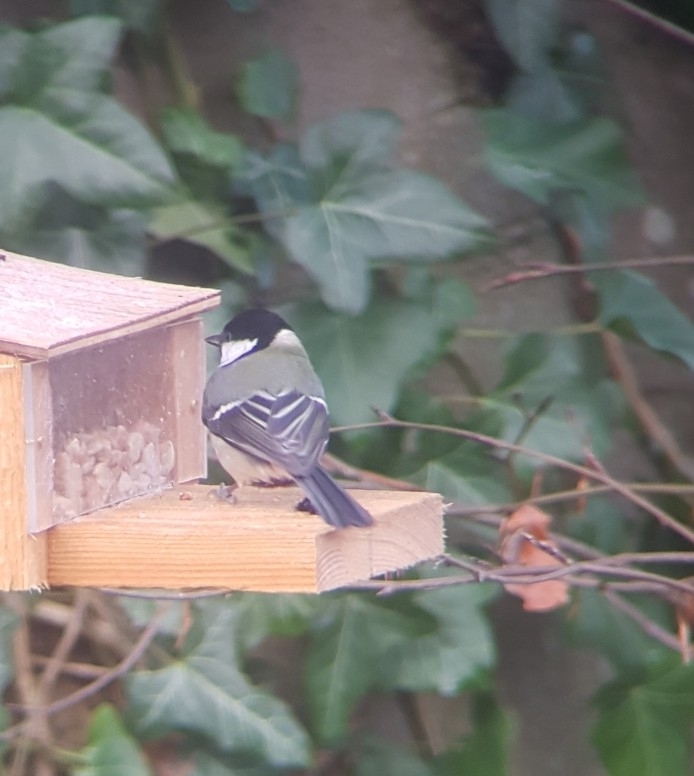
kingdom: Animalia
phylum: Chordata
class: Aves
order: Passeriformes
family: Paridae
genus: Parus
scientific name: Parus major
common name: Great tit
